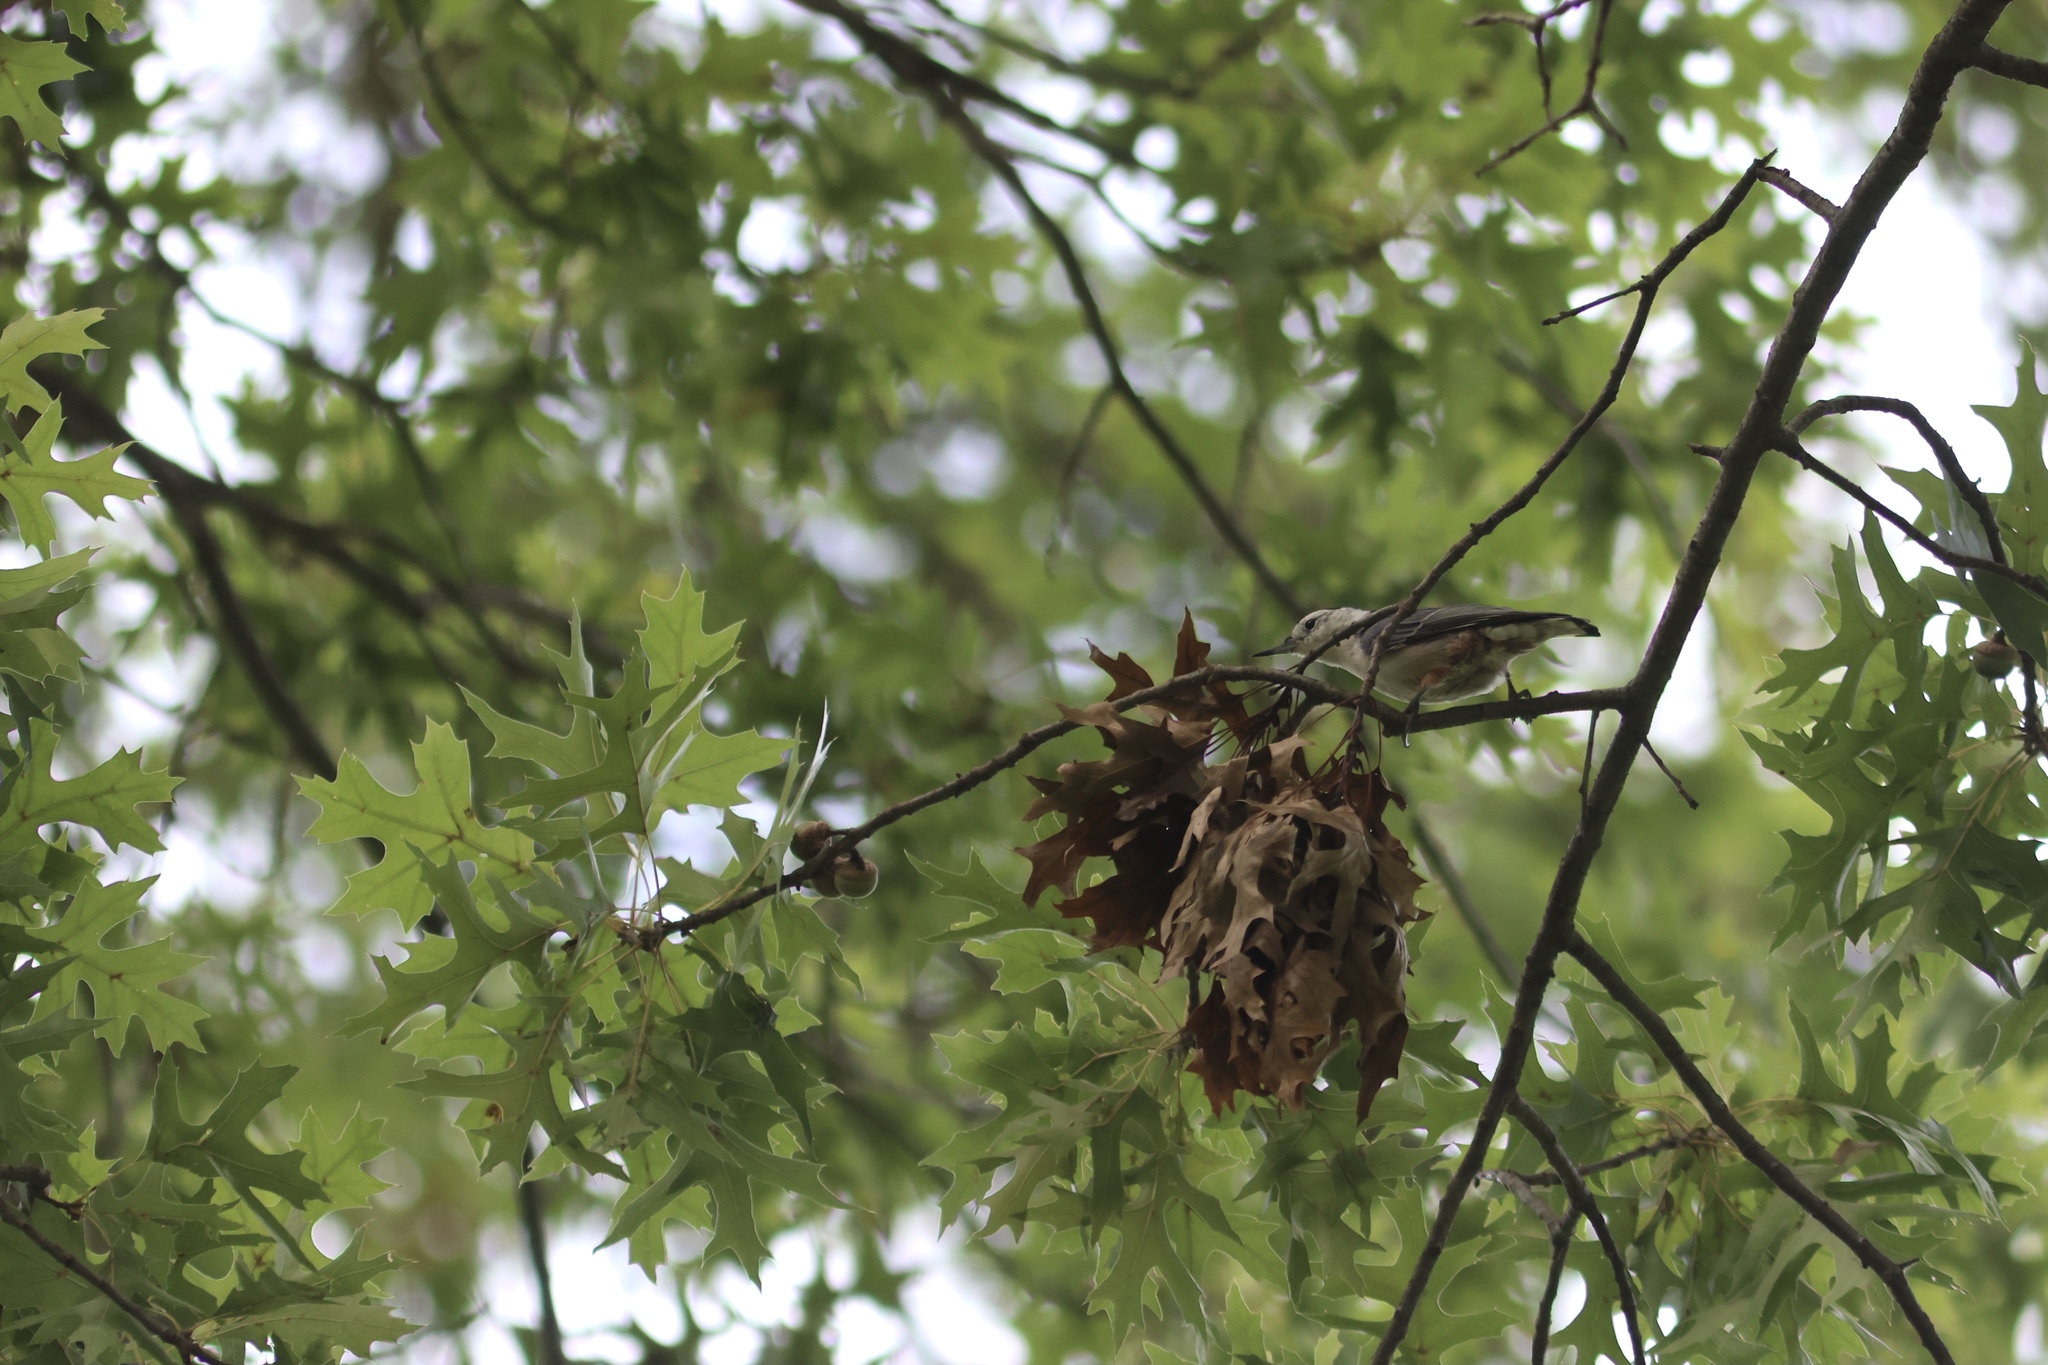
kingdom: Animalia
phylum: Chordata
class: Aves
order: Passeriformes
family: Sittidae
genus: Sitta
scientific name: Sitta carolinensis
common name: White-breasted nuthatch
